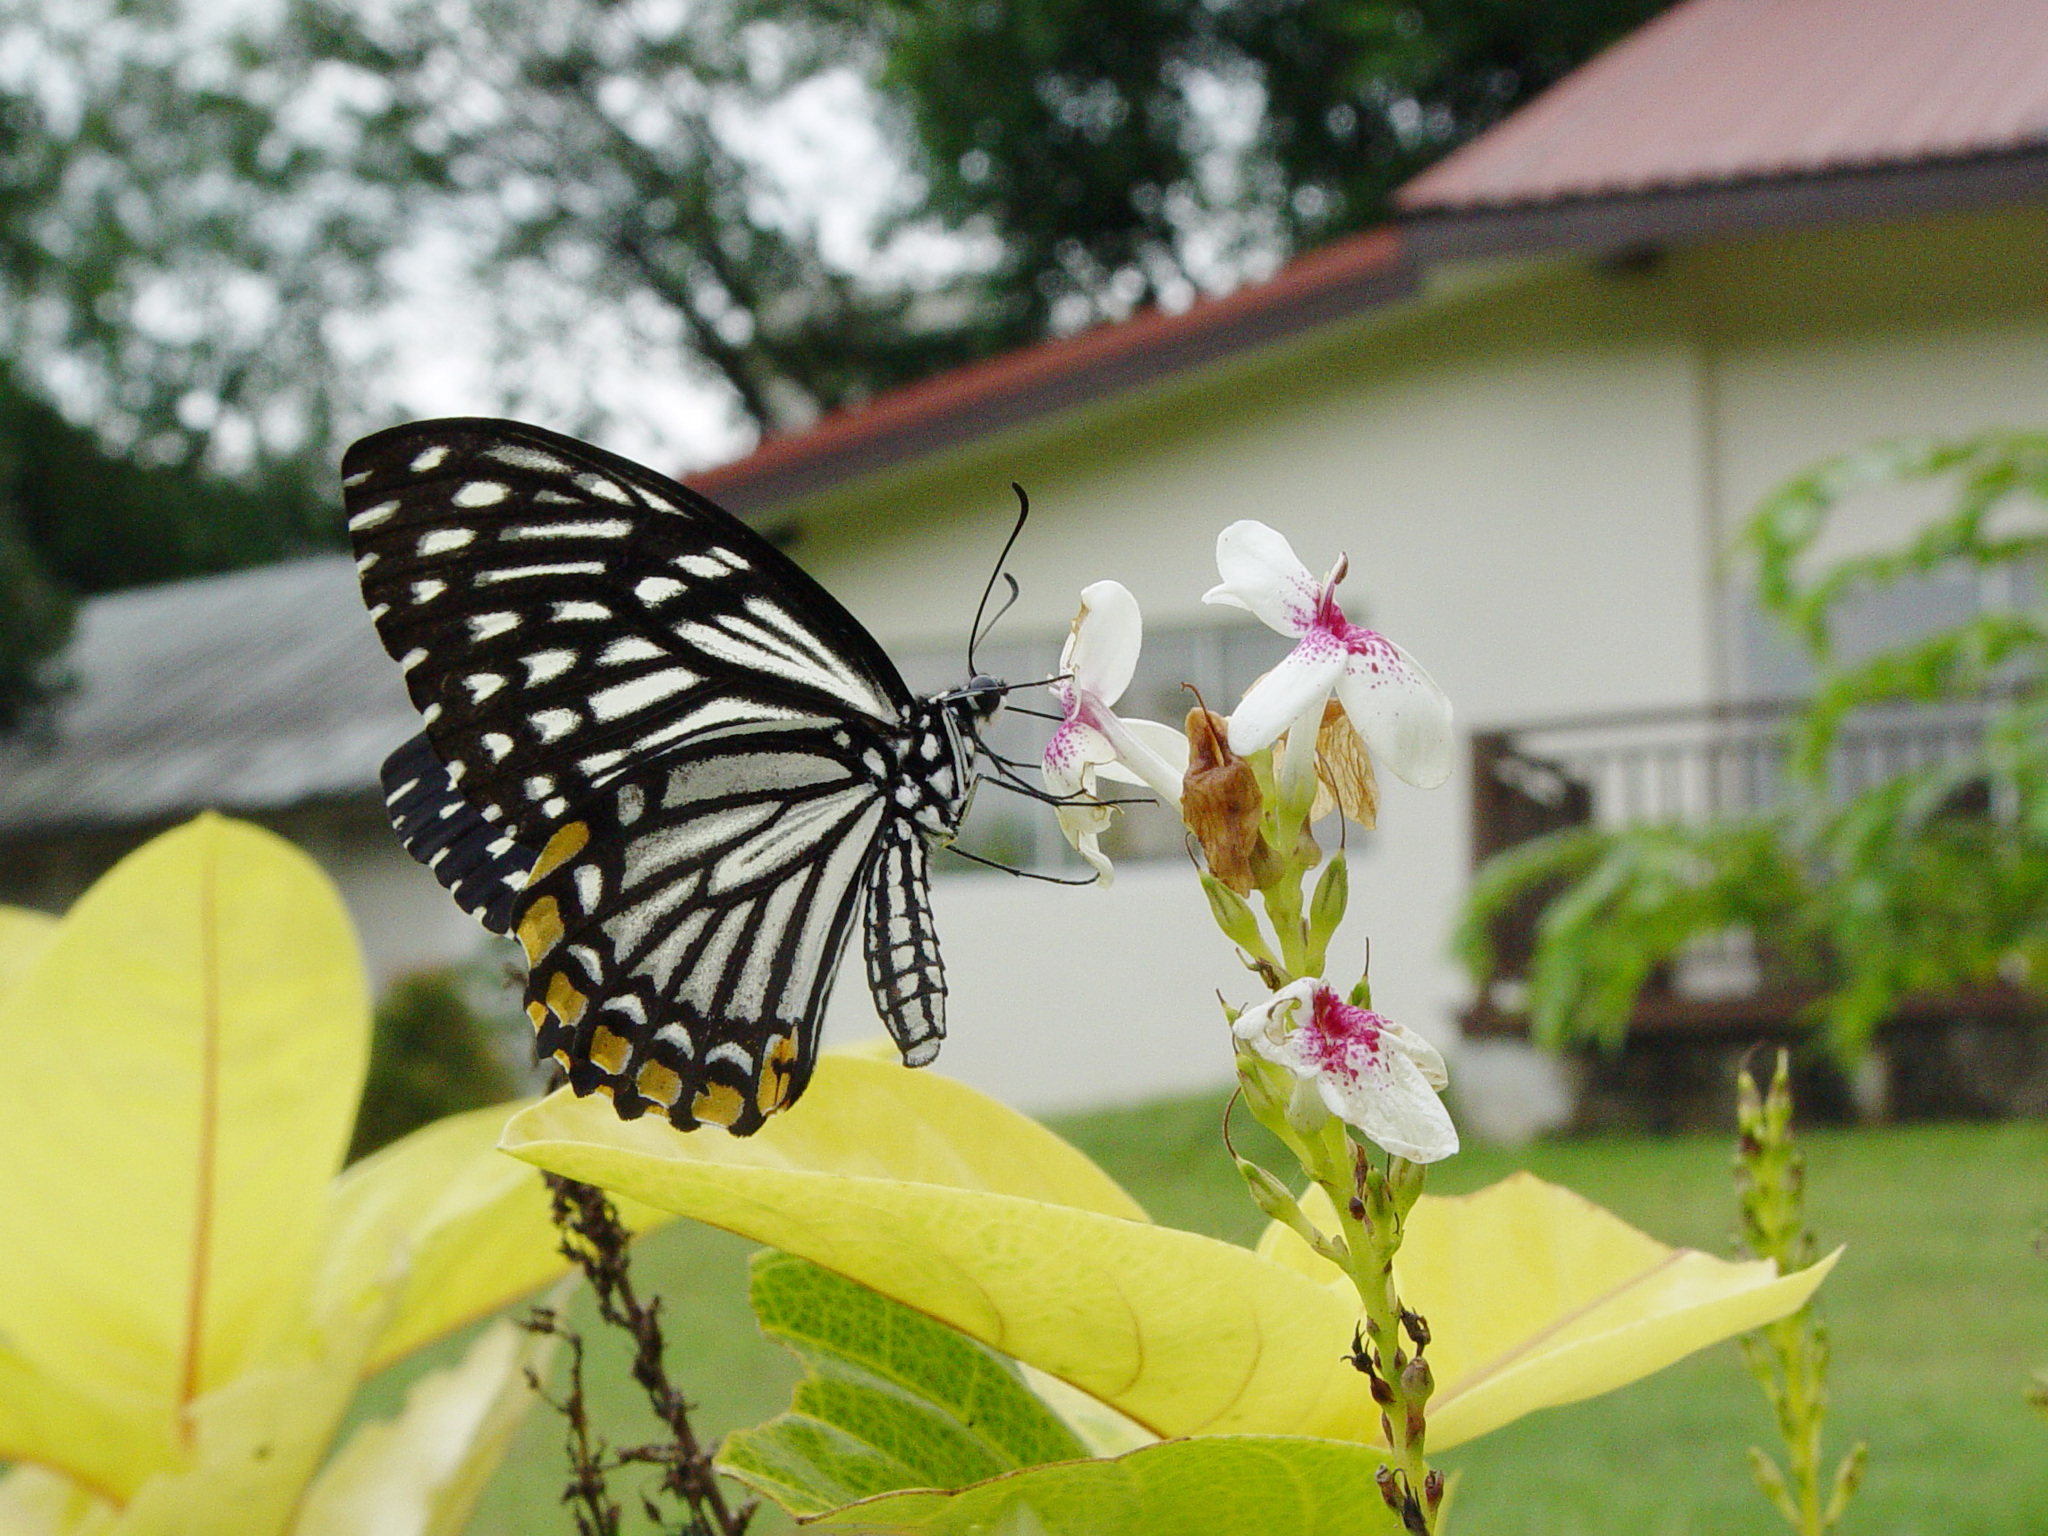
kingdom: Animalia
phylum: Arthropoda
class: Insecta
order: Lepidoptera
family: Papilionidae
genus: Chilasa
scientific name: Chilasa clytia
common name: Common mime
